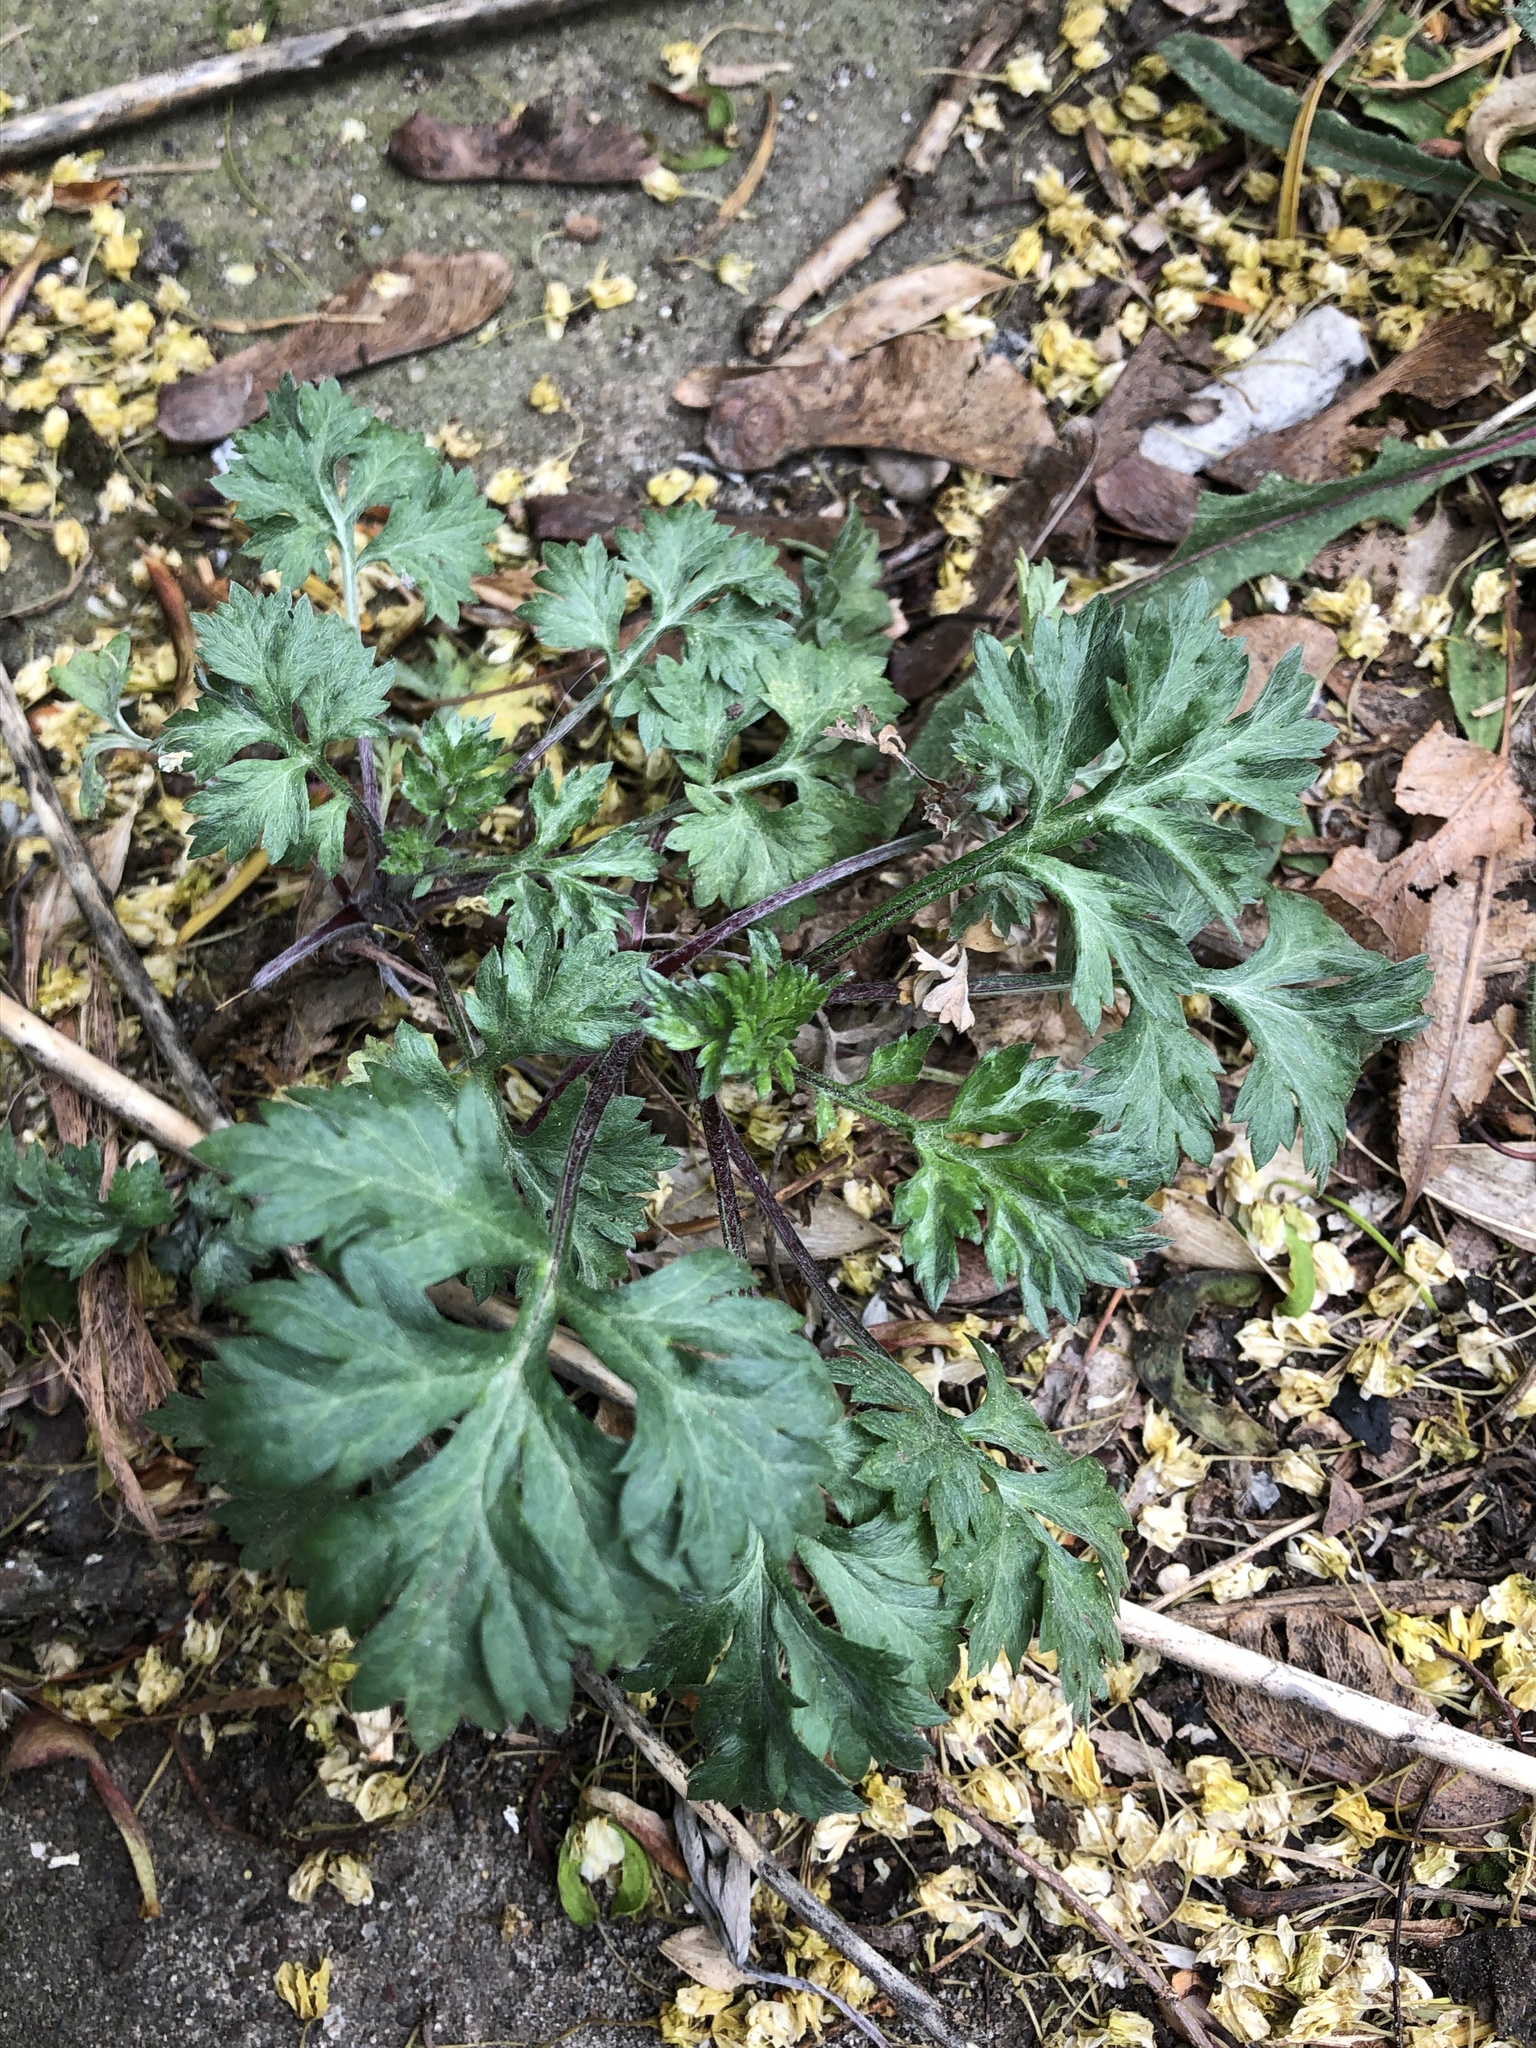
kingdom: Plantae
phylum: Tracheophyta
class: Magnoliopsida
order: Asterales
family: Asteraceae
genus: Artemisia
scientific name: Artemisia vulgaris
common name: Mugwort
